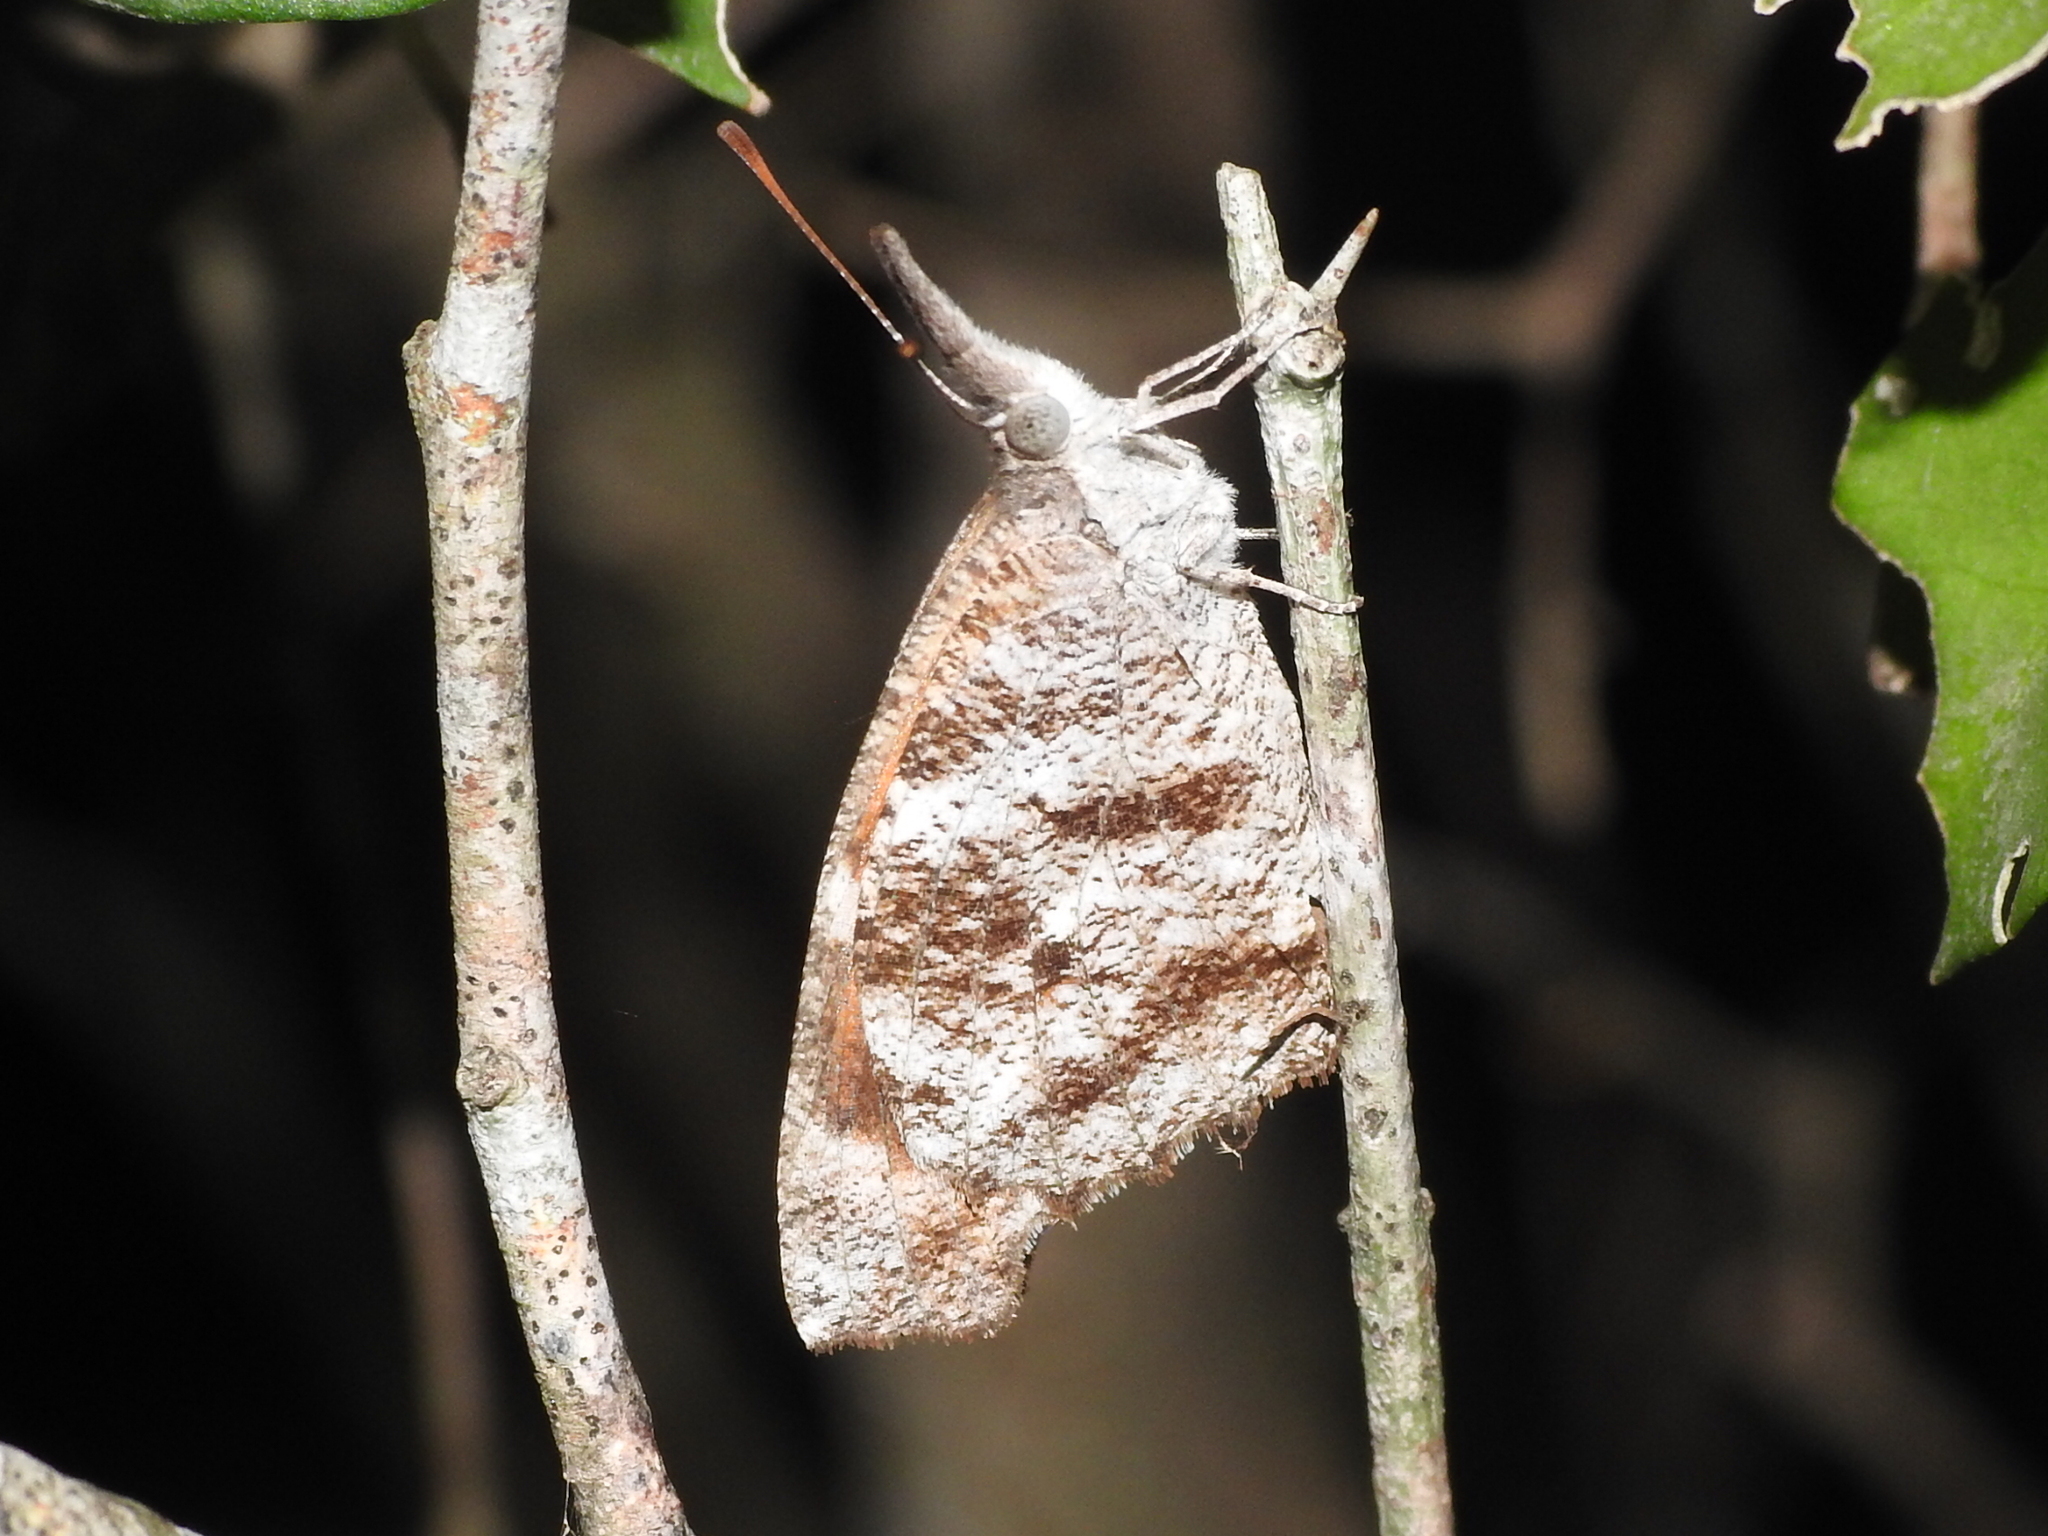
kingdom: Animalia
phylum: Arthropoda
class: Insecta
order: Lepidoptera
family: Nymphalidae
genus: Libytheana
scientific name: Libytheana carinenta
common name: American snout
